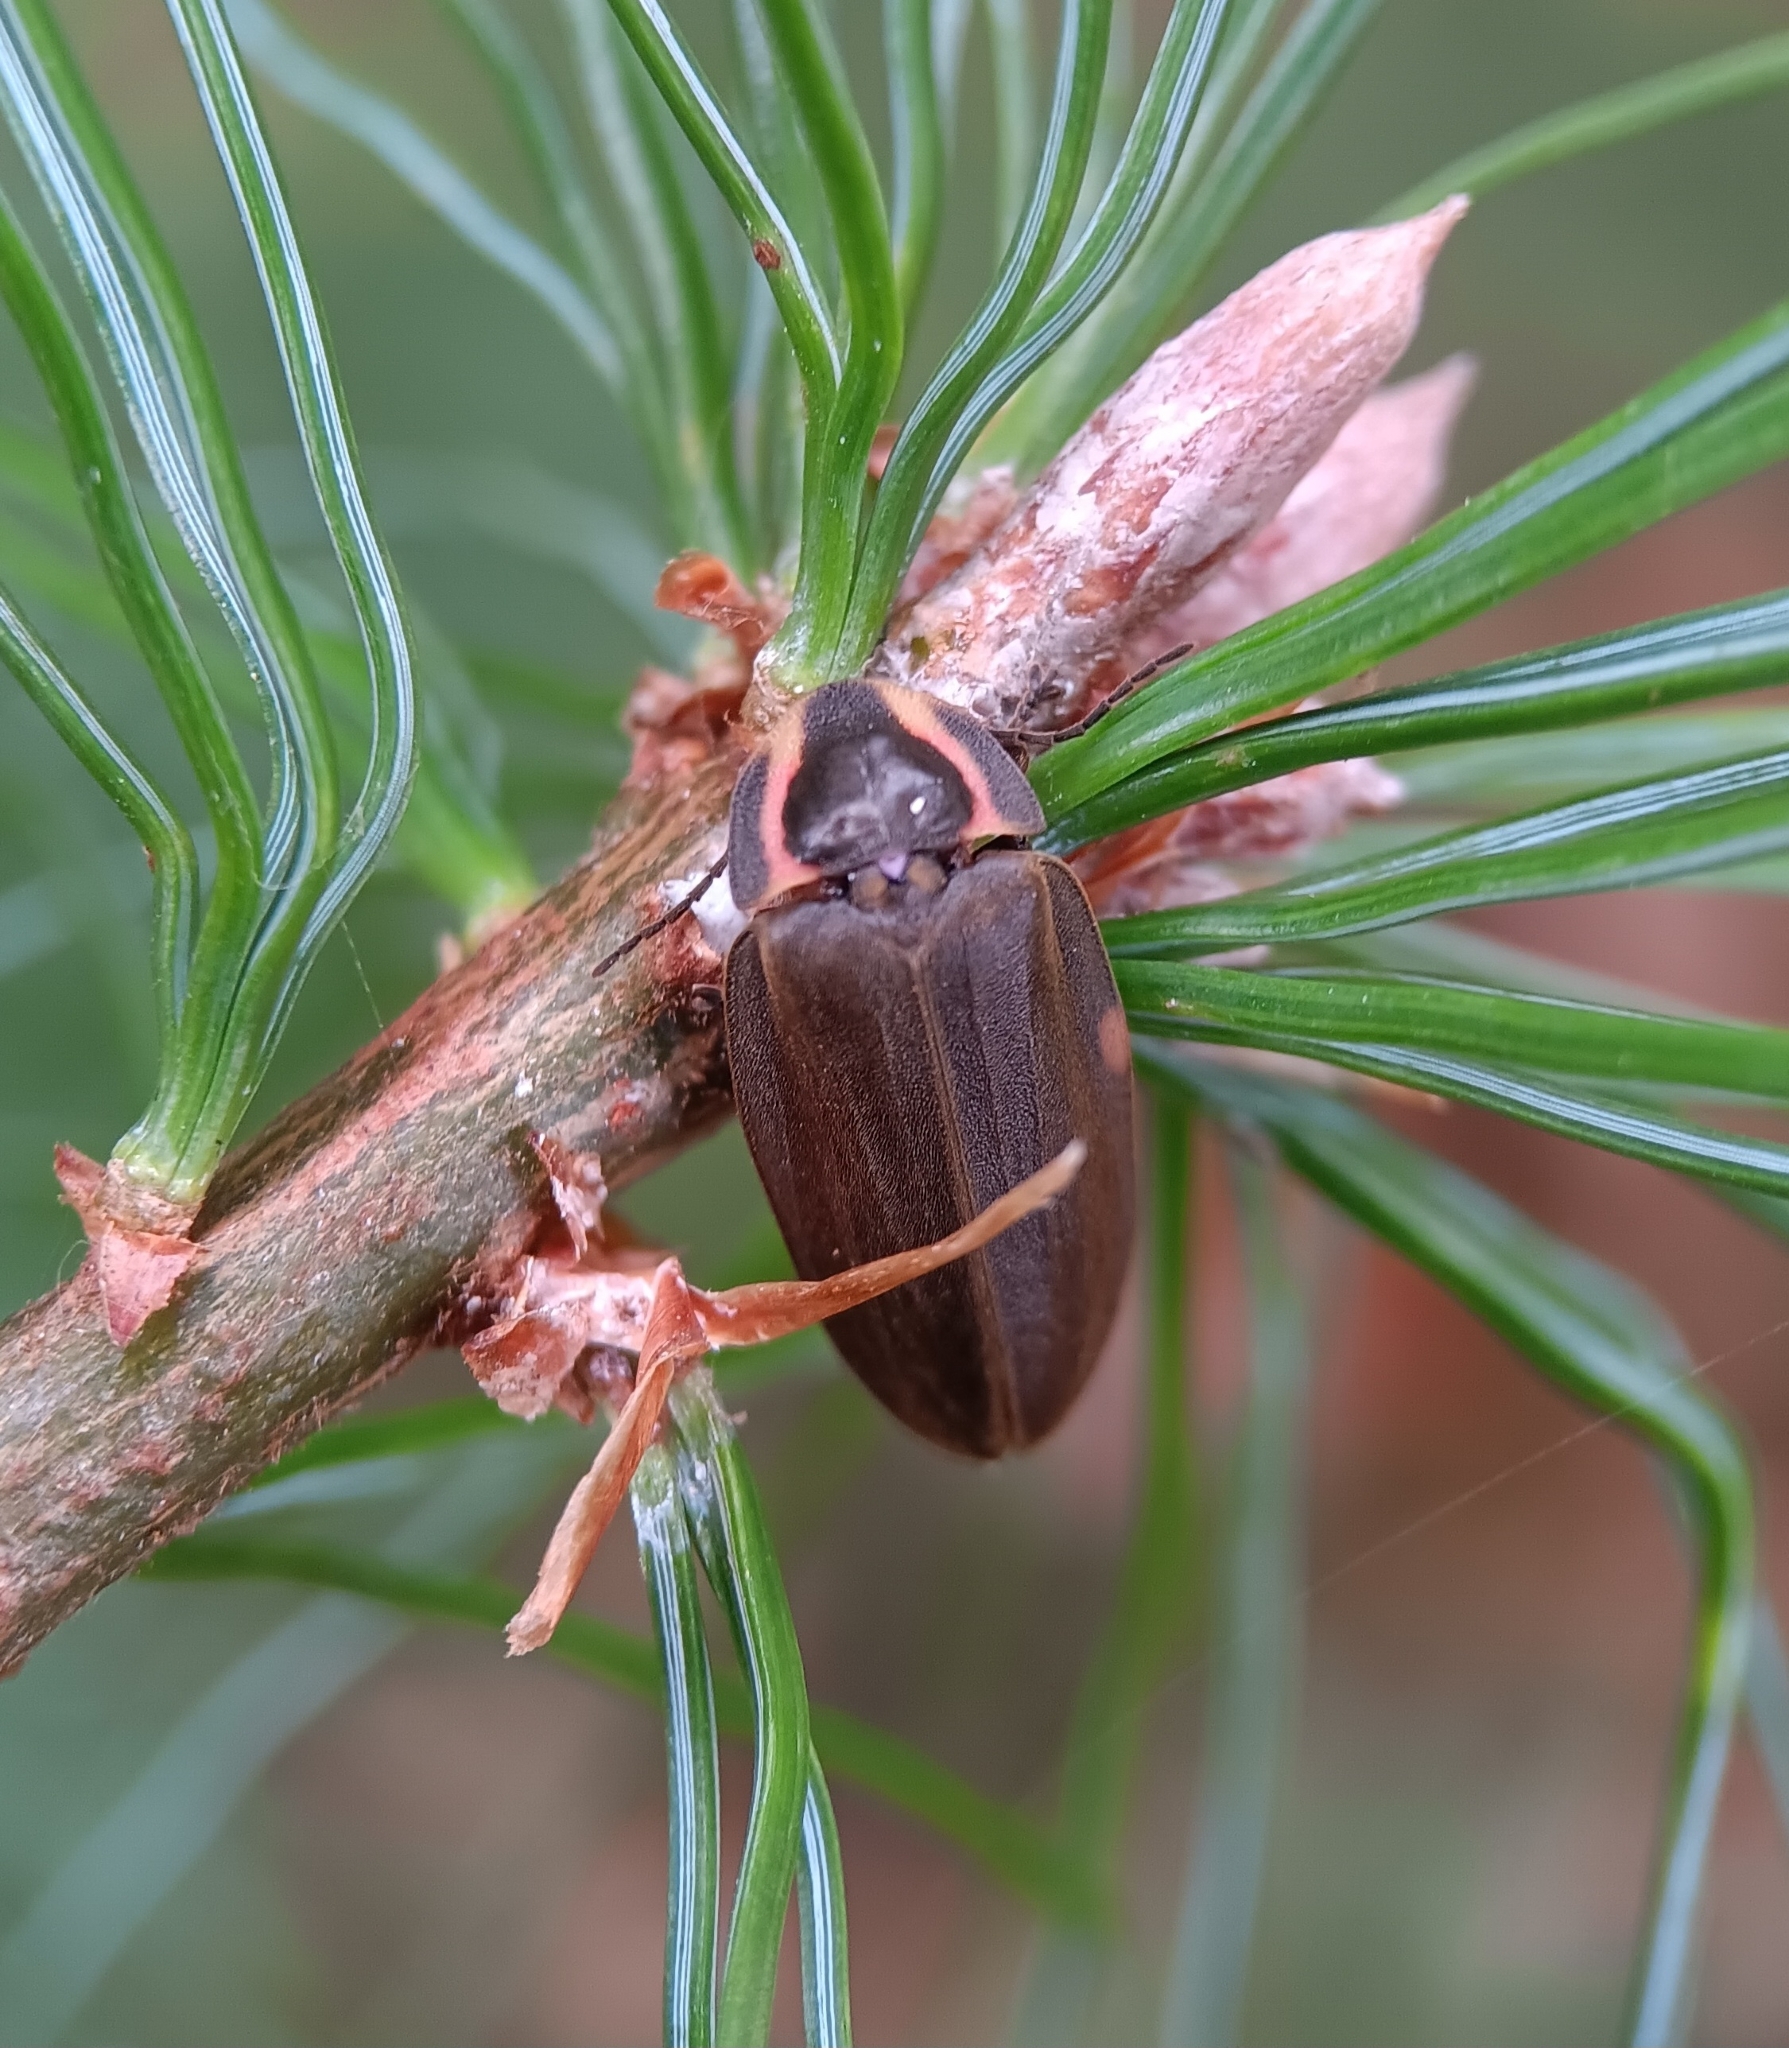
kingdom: Animalia
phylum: Arthropoda
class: Insecta
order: Coleoptera
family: Lampyridae
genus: Photinus
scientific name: Photinus corrusca
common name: Winter firefly
